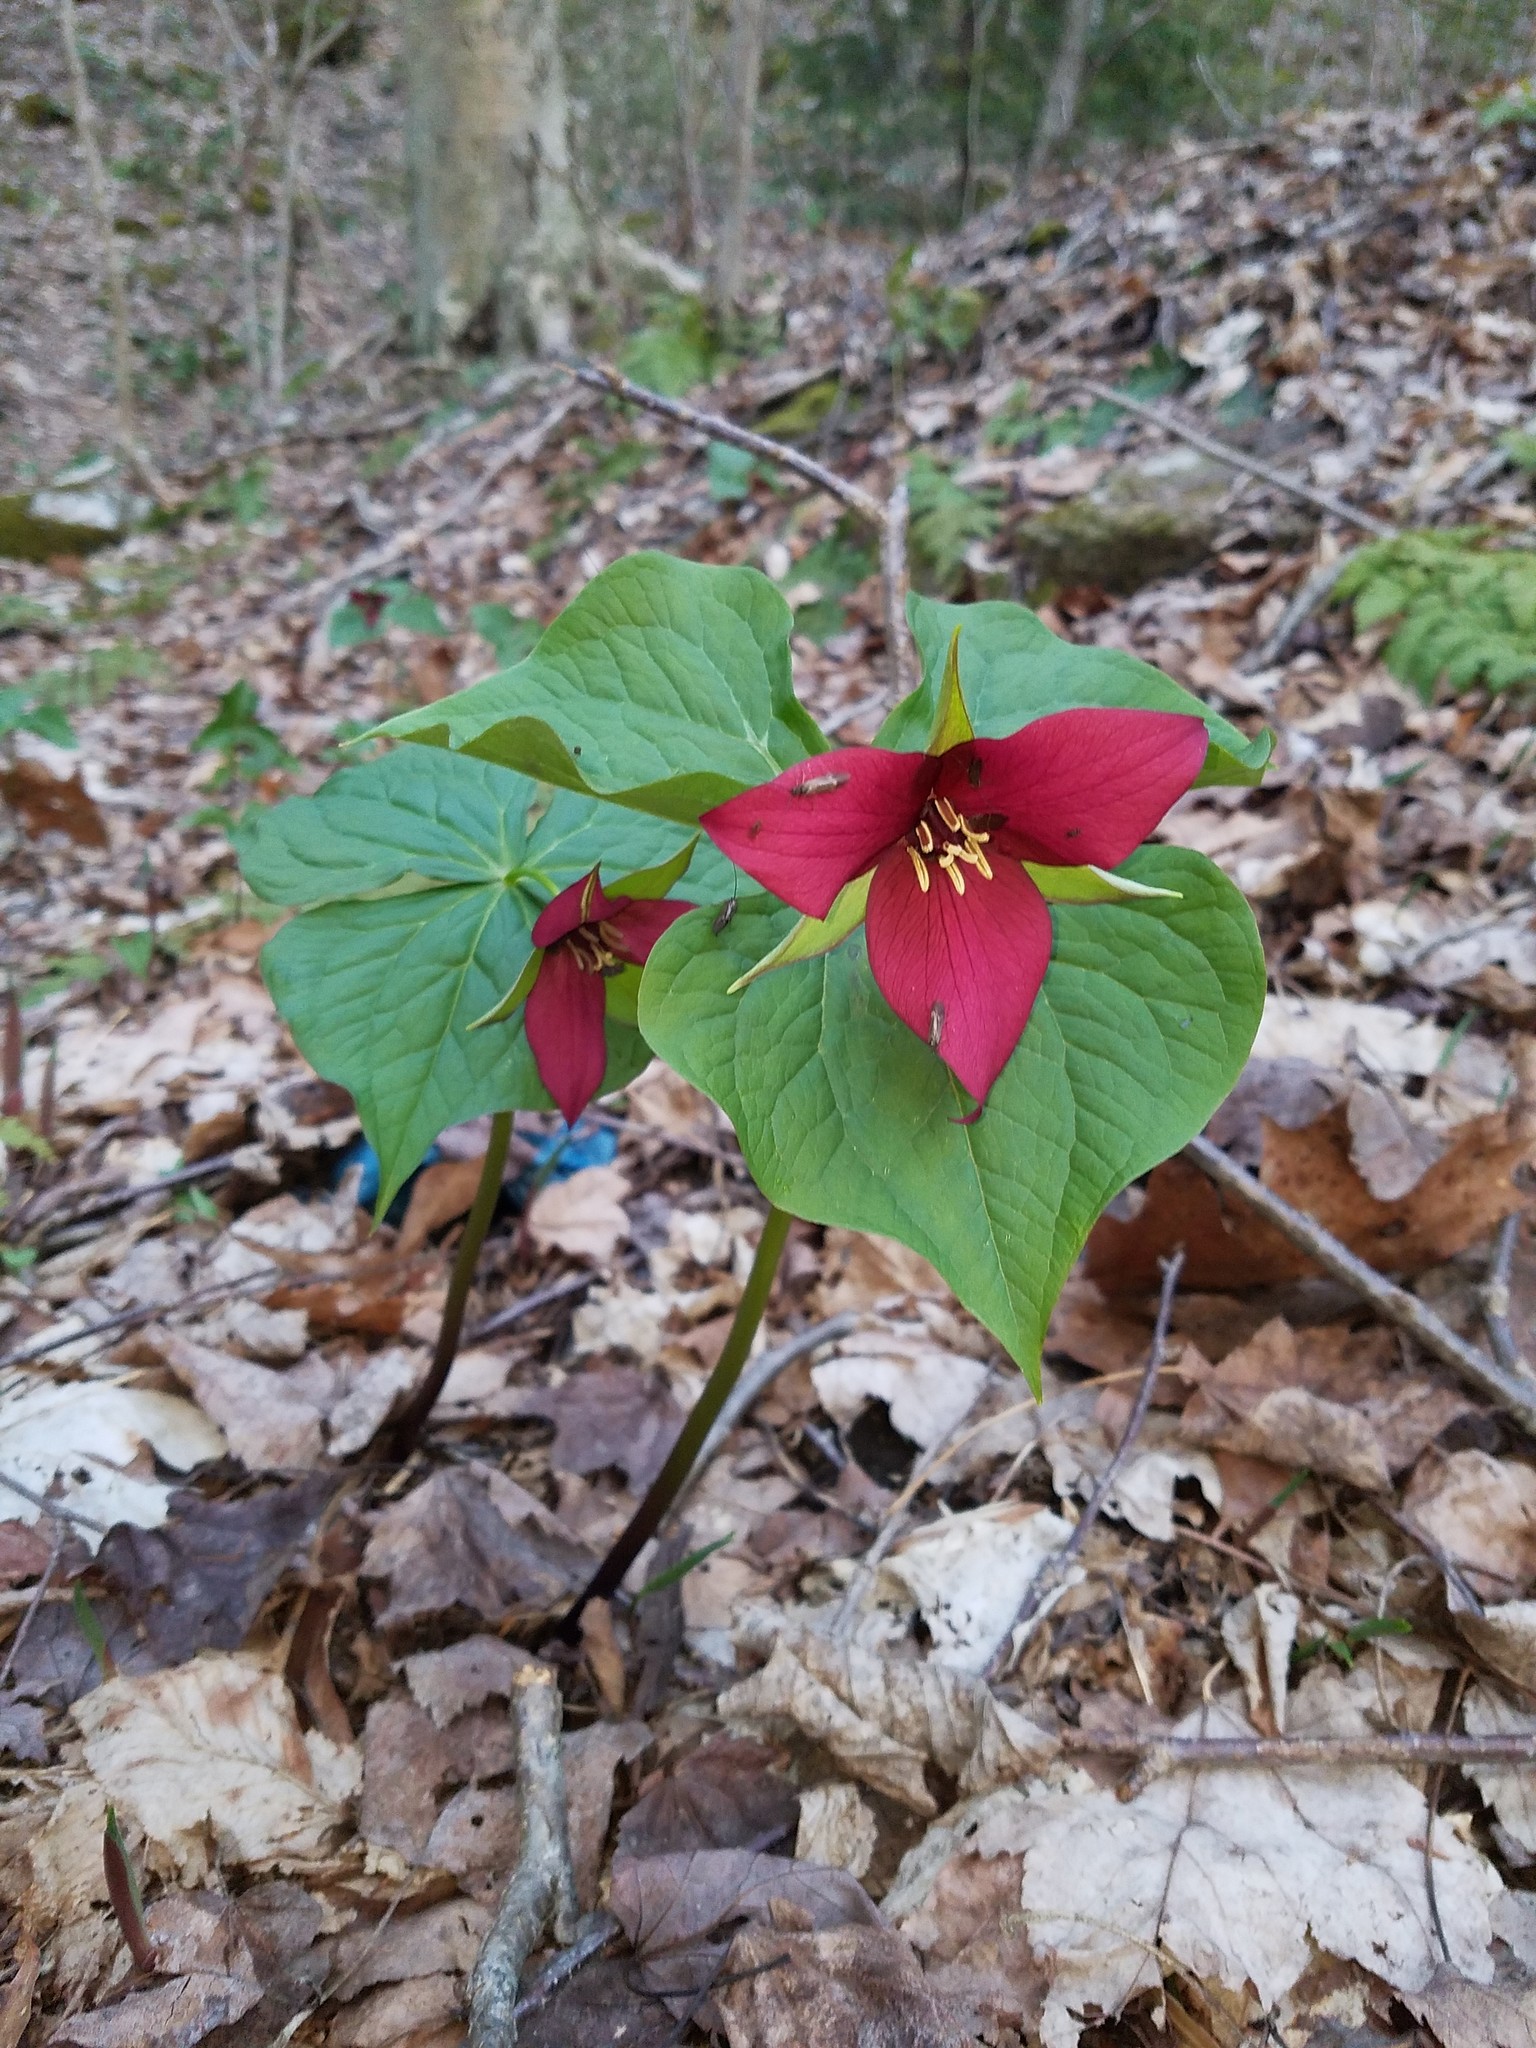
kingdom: Plantae
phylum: Tracheophyta
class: Liliopsida
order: Liliales
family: Melanthiaceae
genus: Trillium
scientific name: Trillium erectum
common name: Purple trillium
